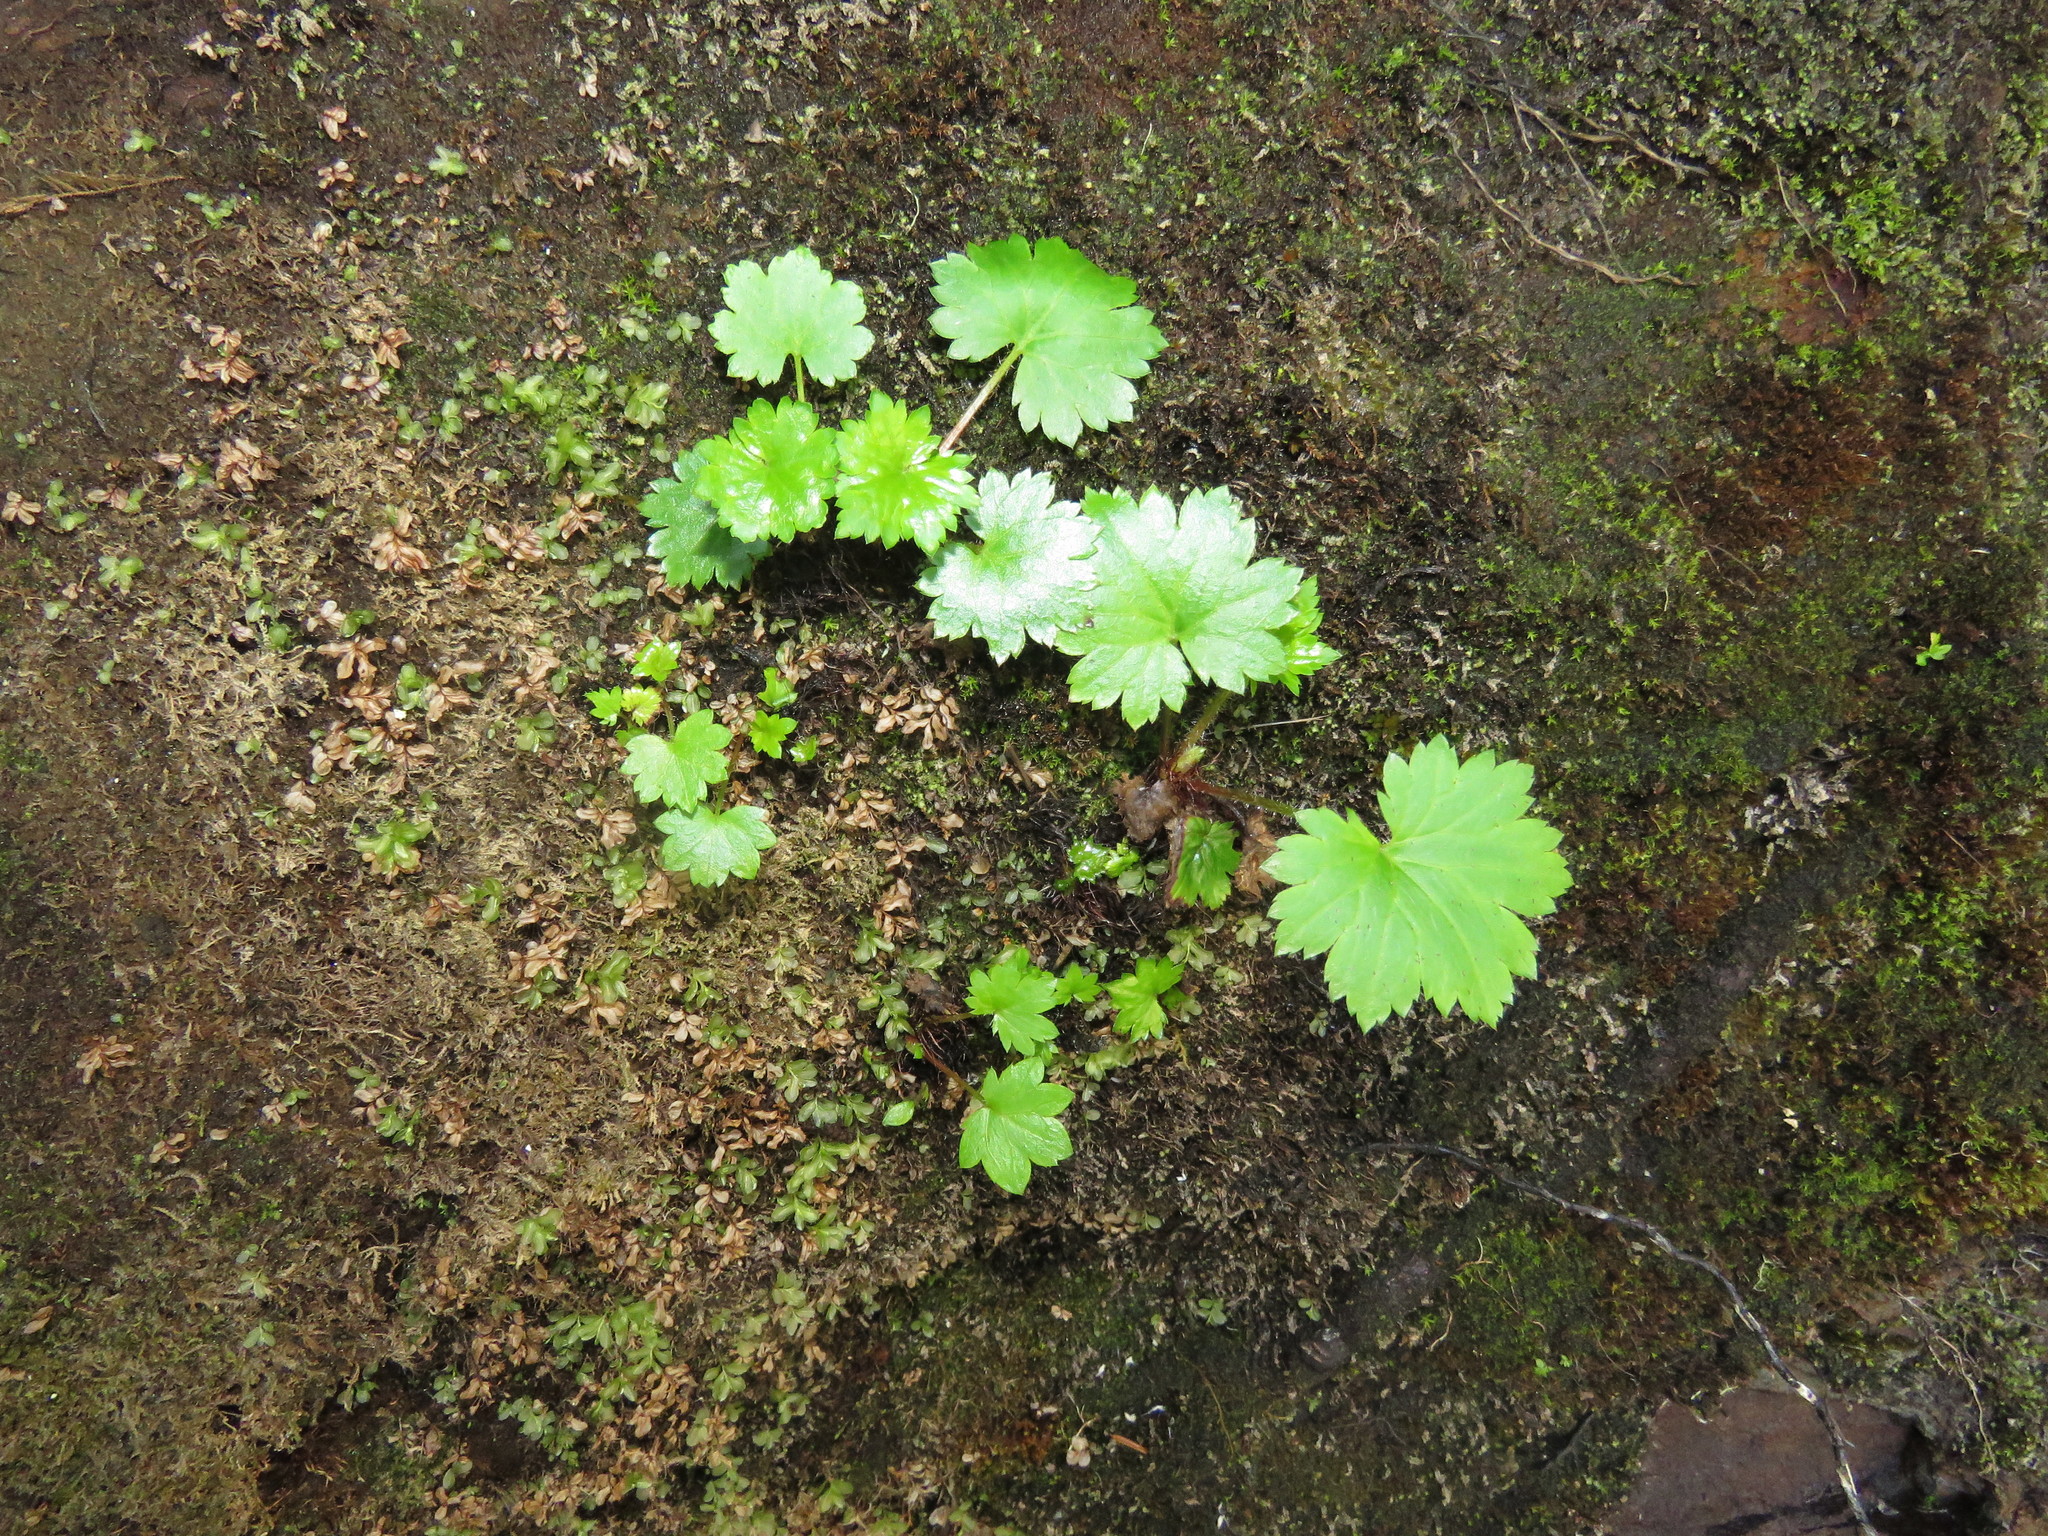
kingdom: Plantae
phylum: Tracheophyta
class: Magnoliopsida
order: Saxifragales
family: Saxifragaceae
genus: Boykinia
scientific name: Boykinia occidentalis
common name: Coast boykinia
